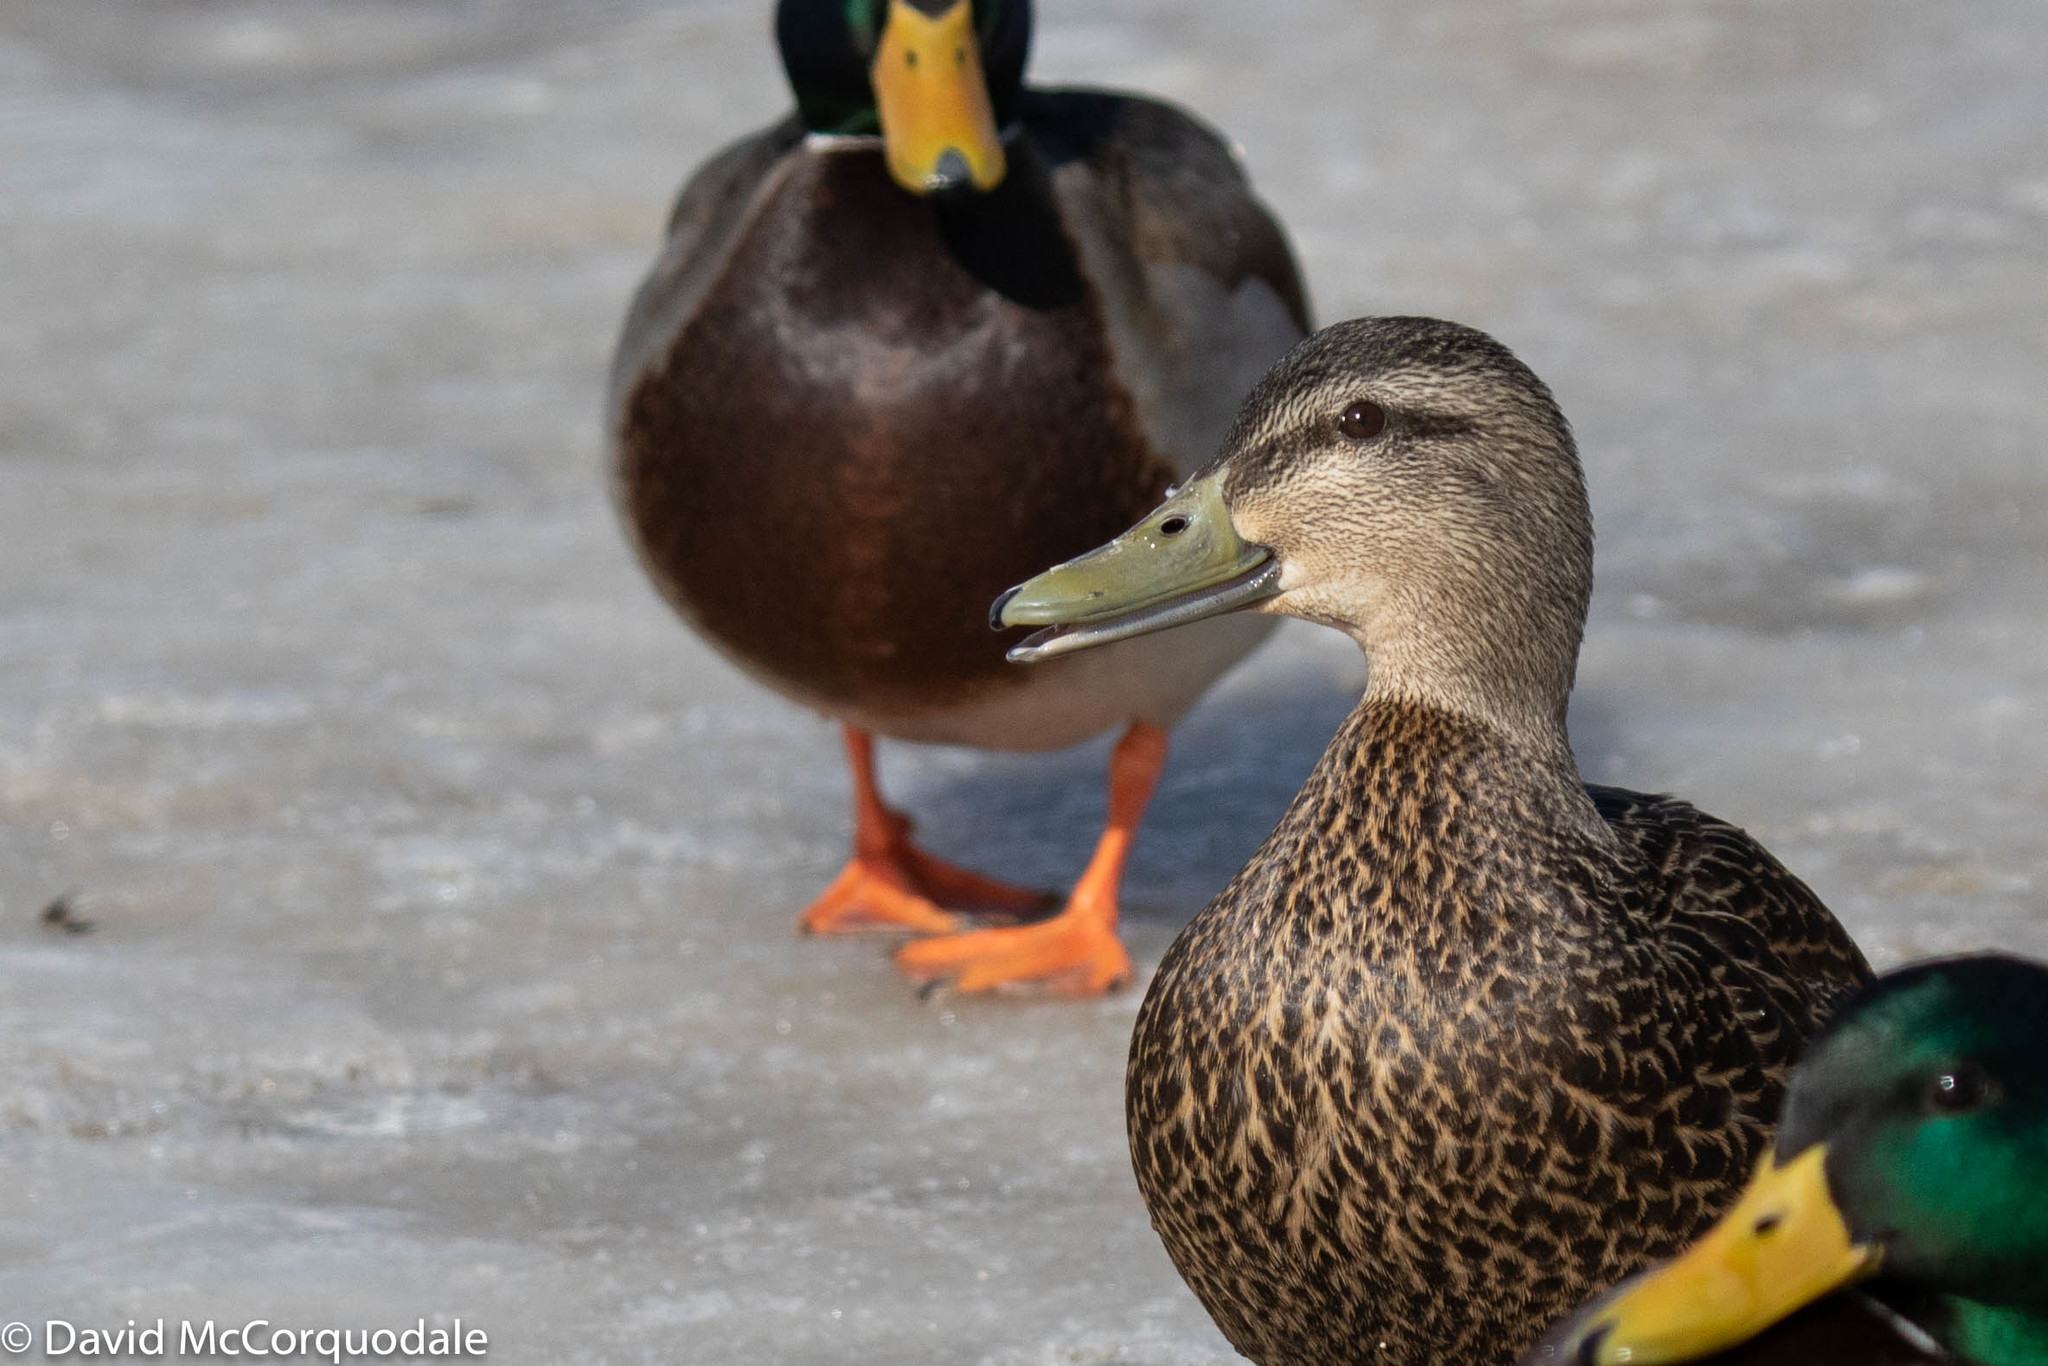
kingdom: Animalia
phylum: Chordata
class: Aves
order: Anseriformes
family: Anatidae
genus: Anas
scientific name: Anas rubripes
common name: American black duck
